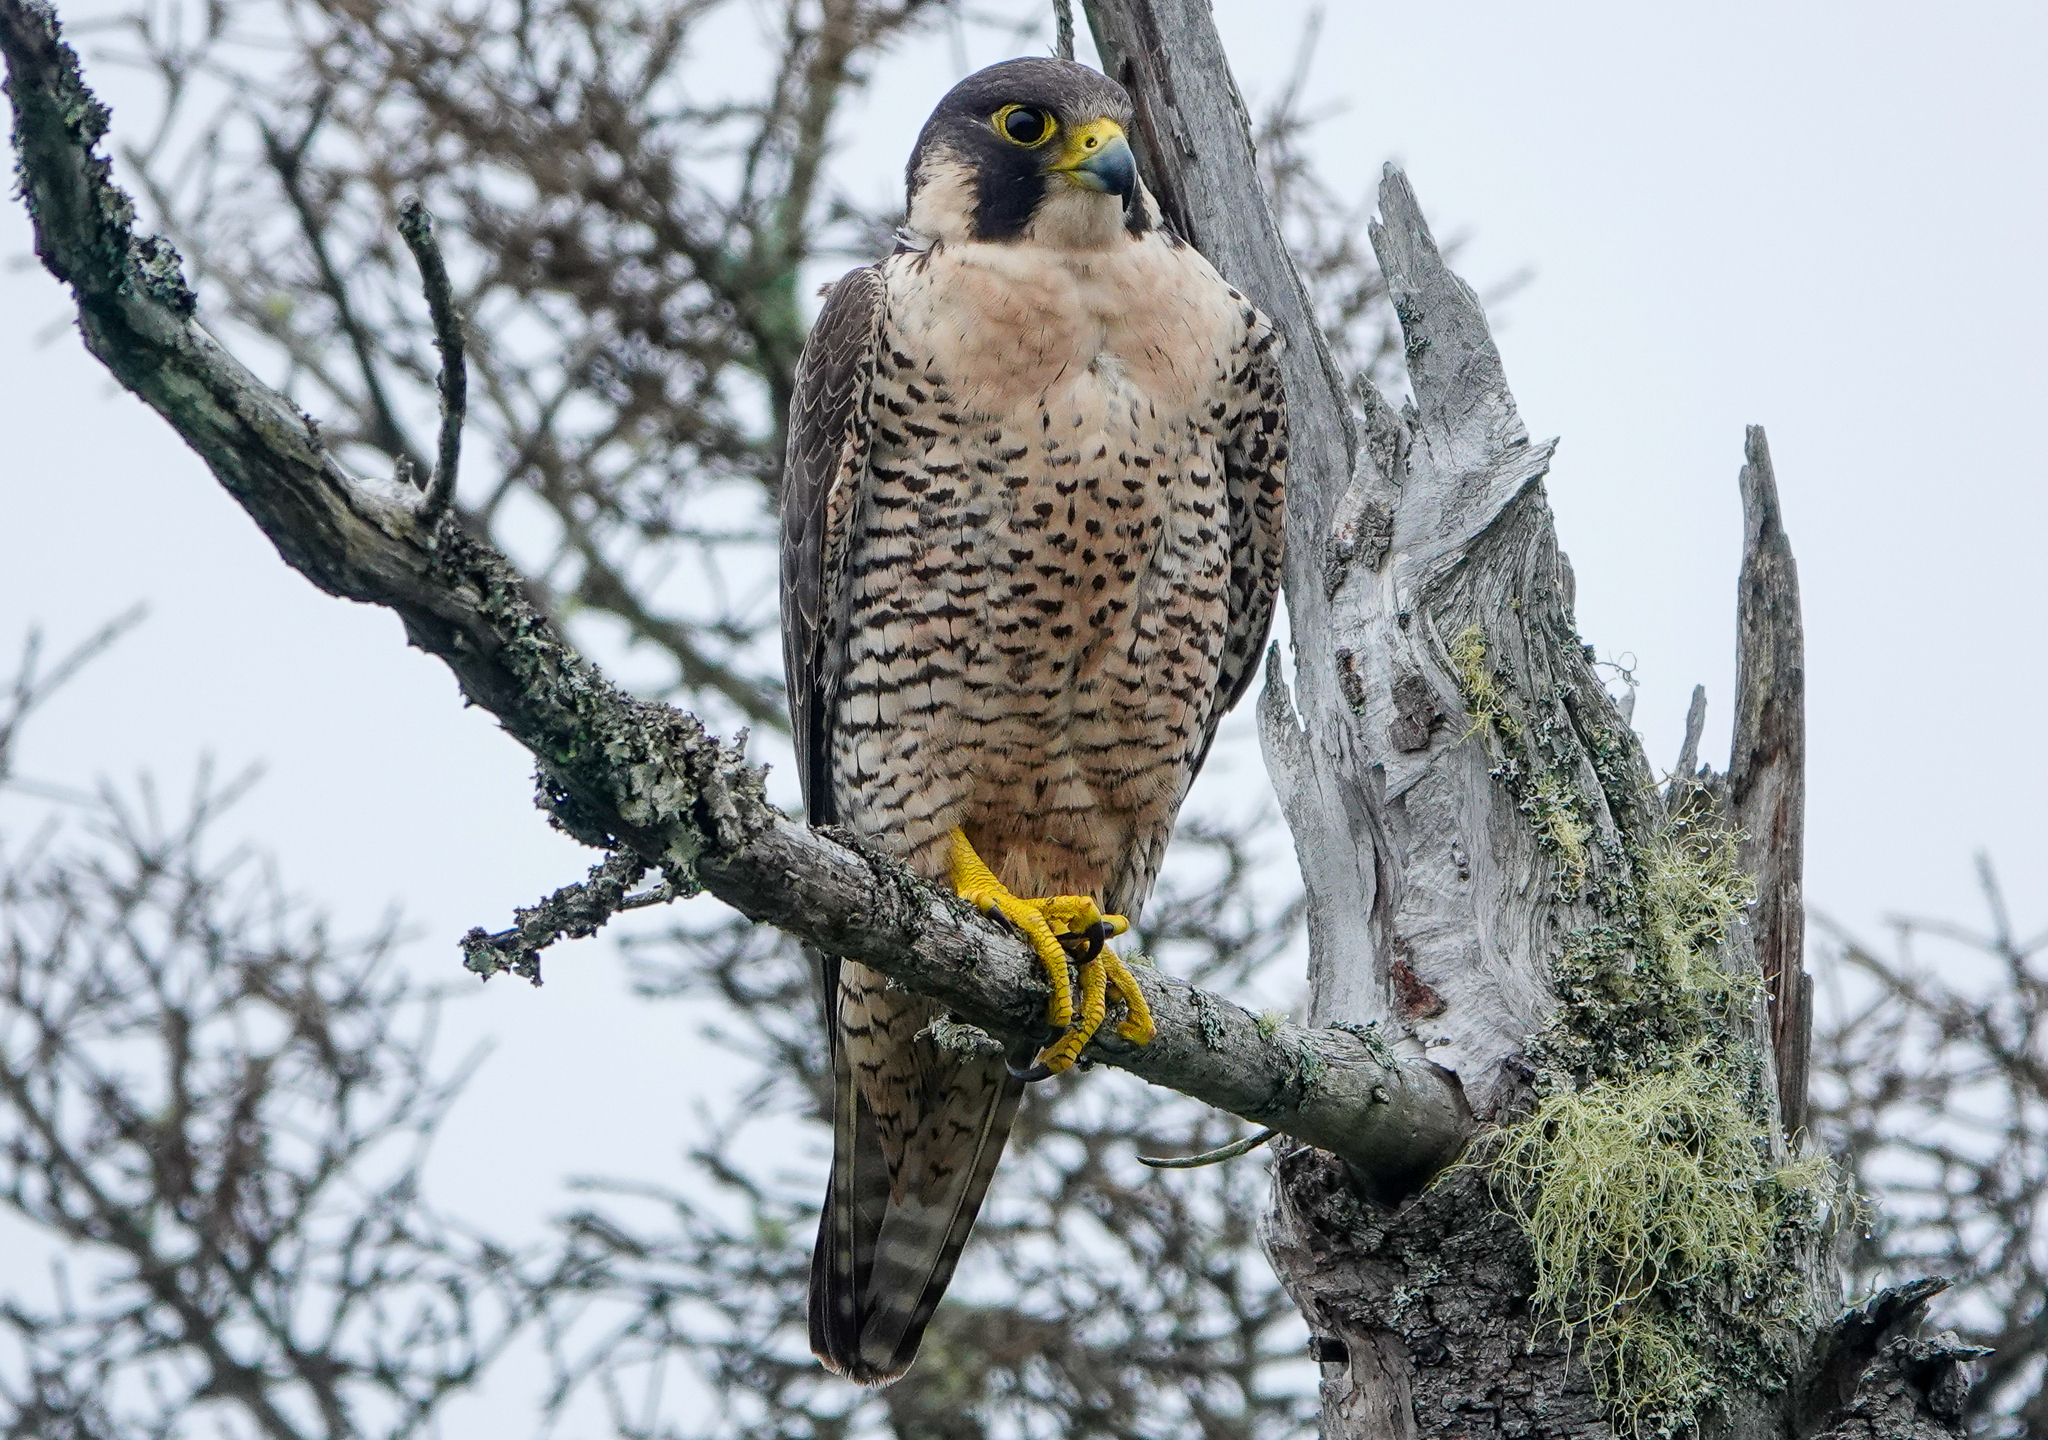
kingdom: Animalia
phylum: Chordata
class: Aves
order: Falconiformes
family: Falconidae
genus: Falco
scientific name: Falco peregrinus
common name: Peregrine falcon
